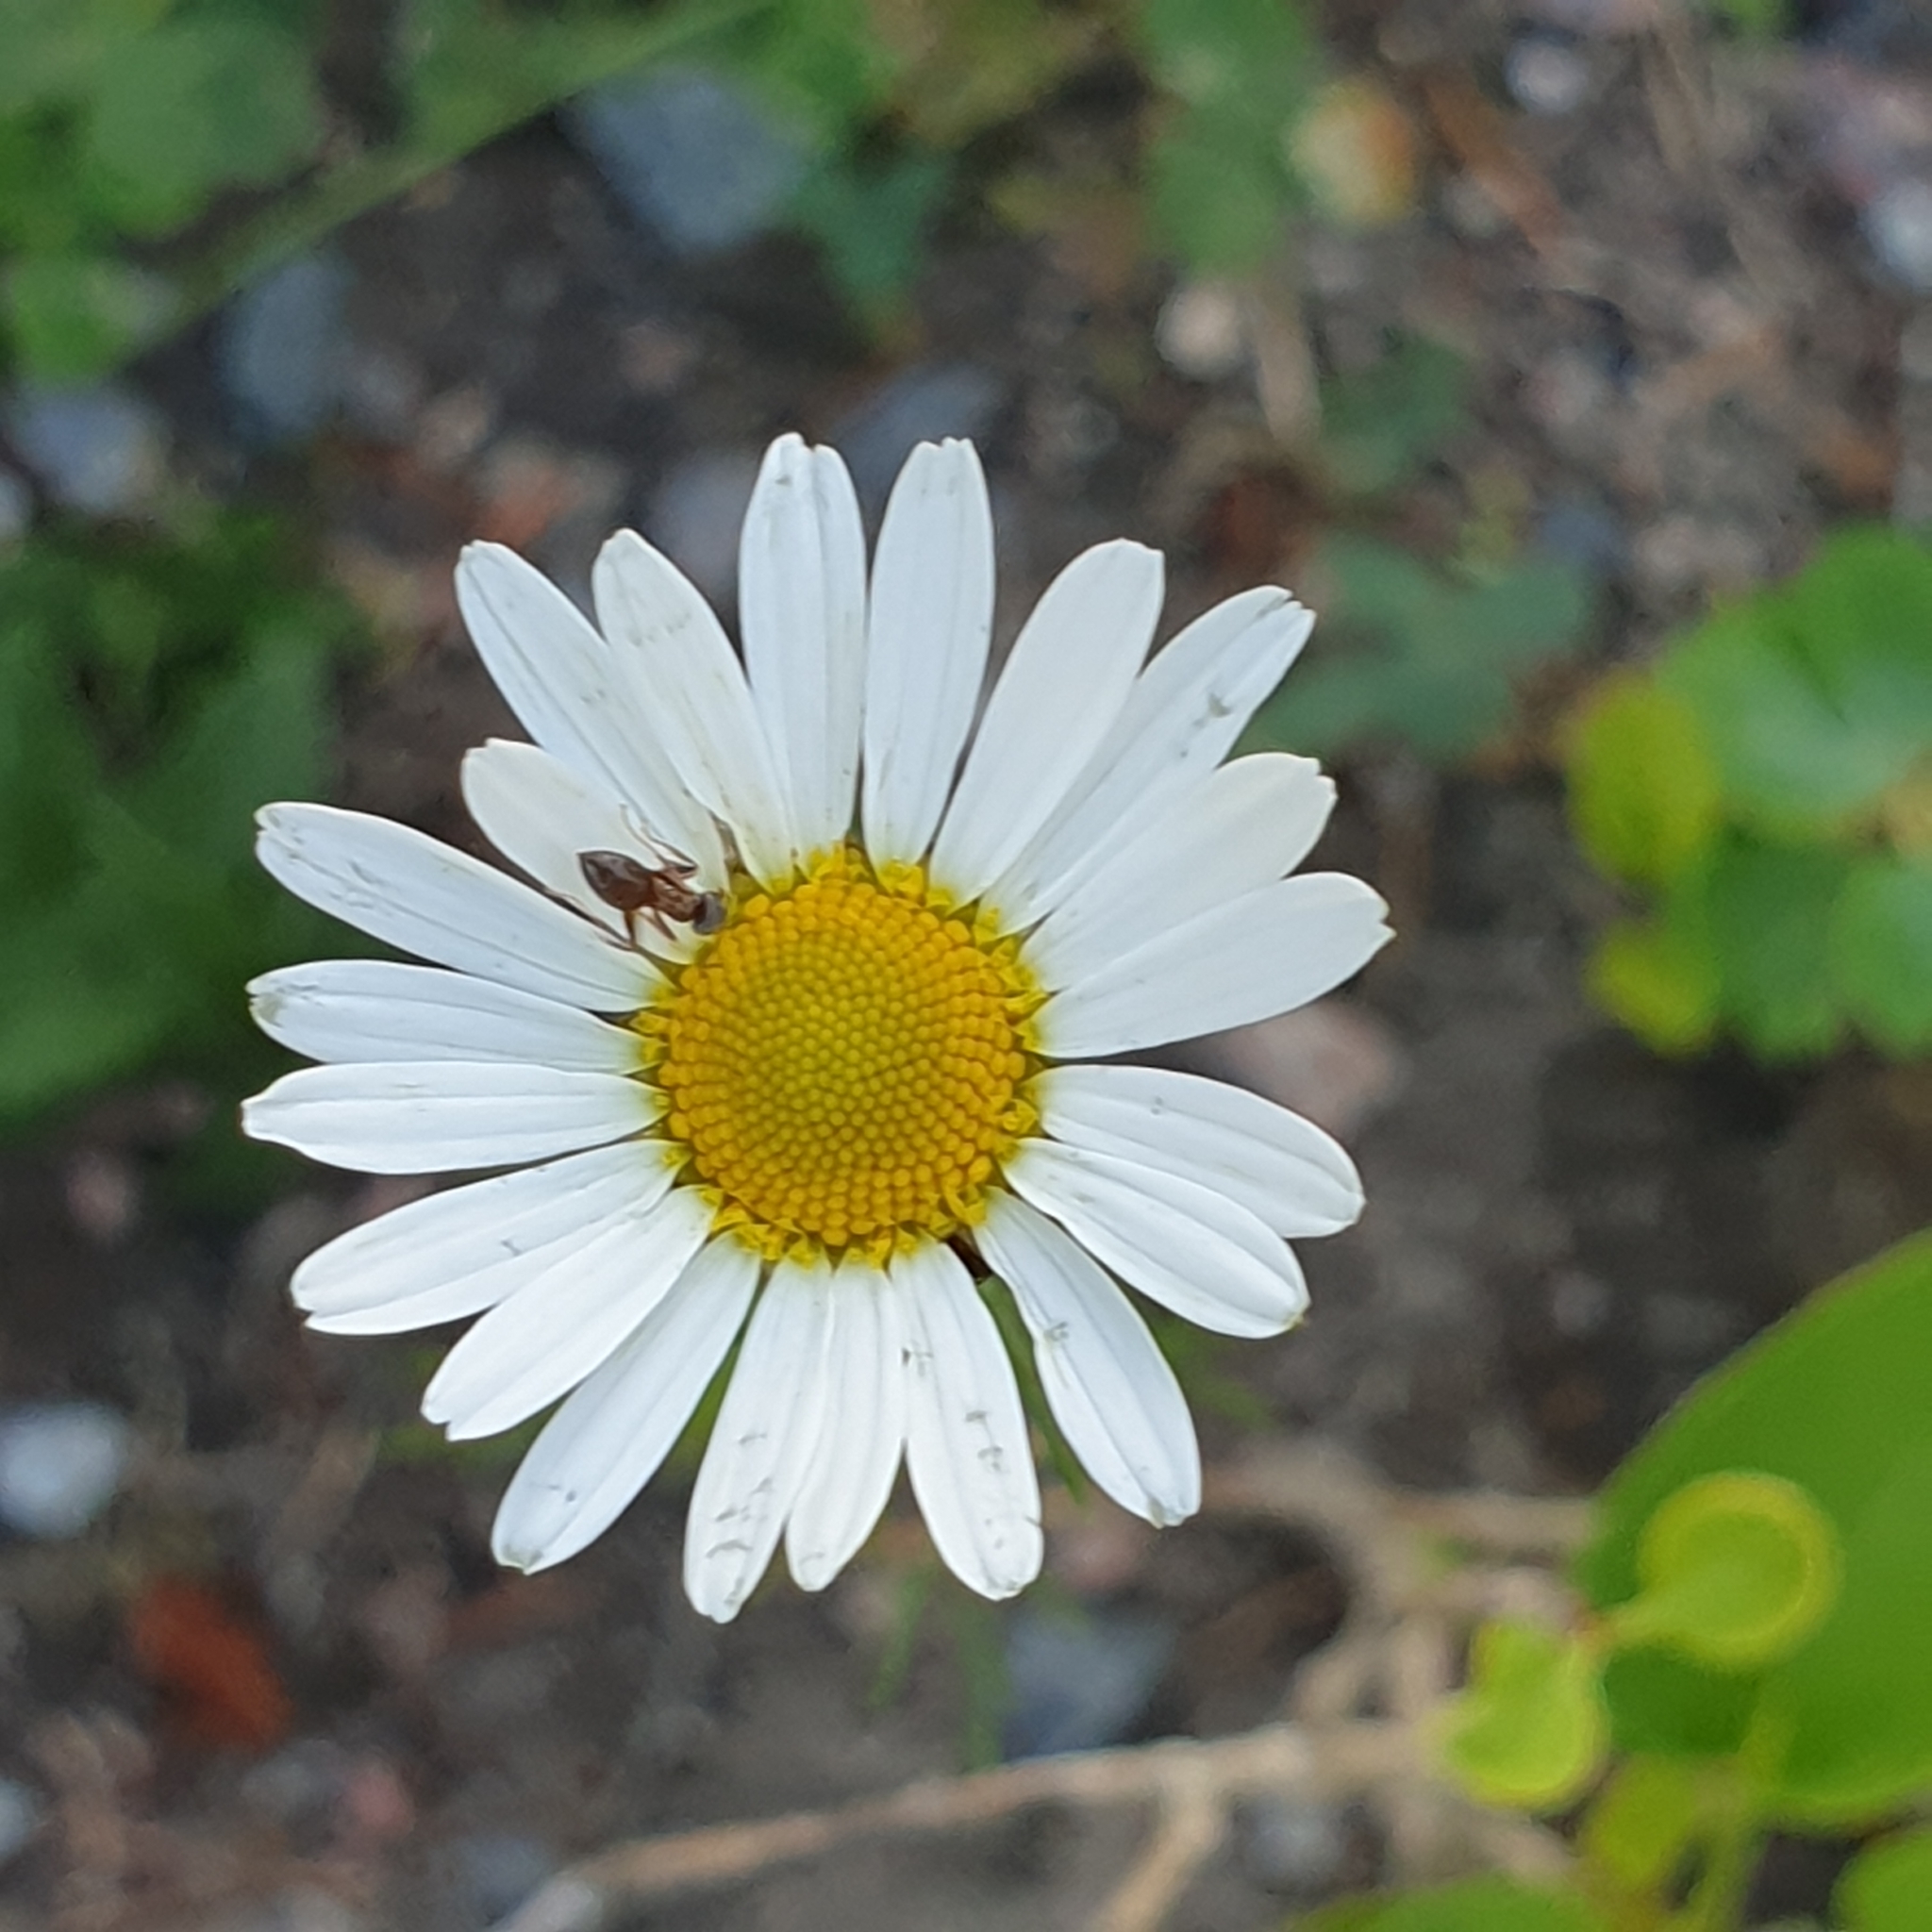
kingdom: Plantae
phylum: Tracheophyta
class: Magnoliopsida
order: Asterales
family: Asteraceae
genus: Tripleurospermum
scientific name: Tripleurospermum inodorum
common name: Scentless mayweed
